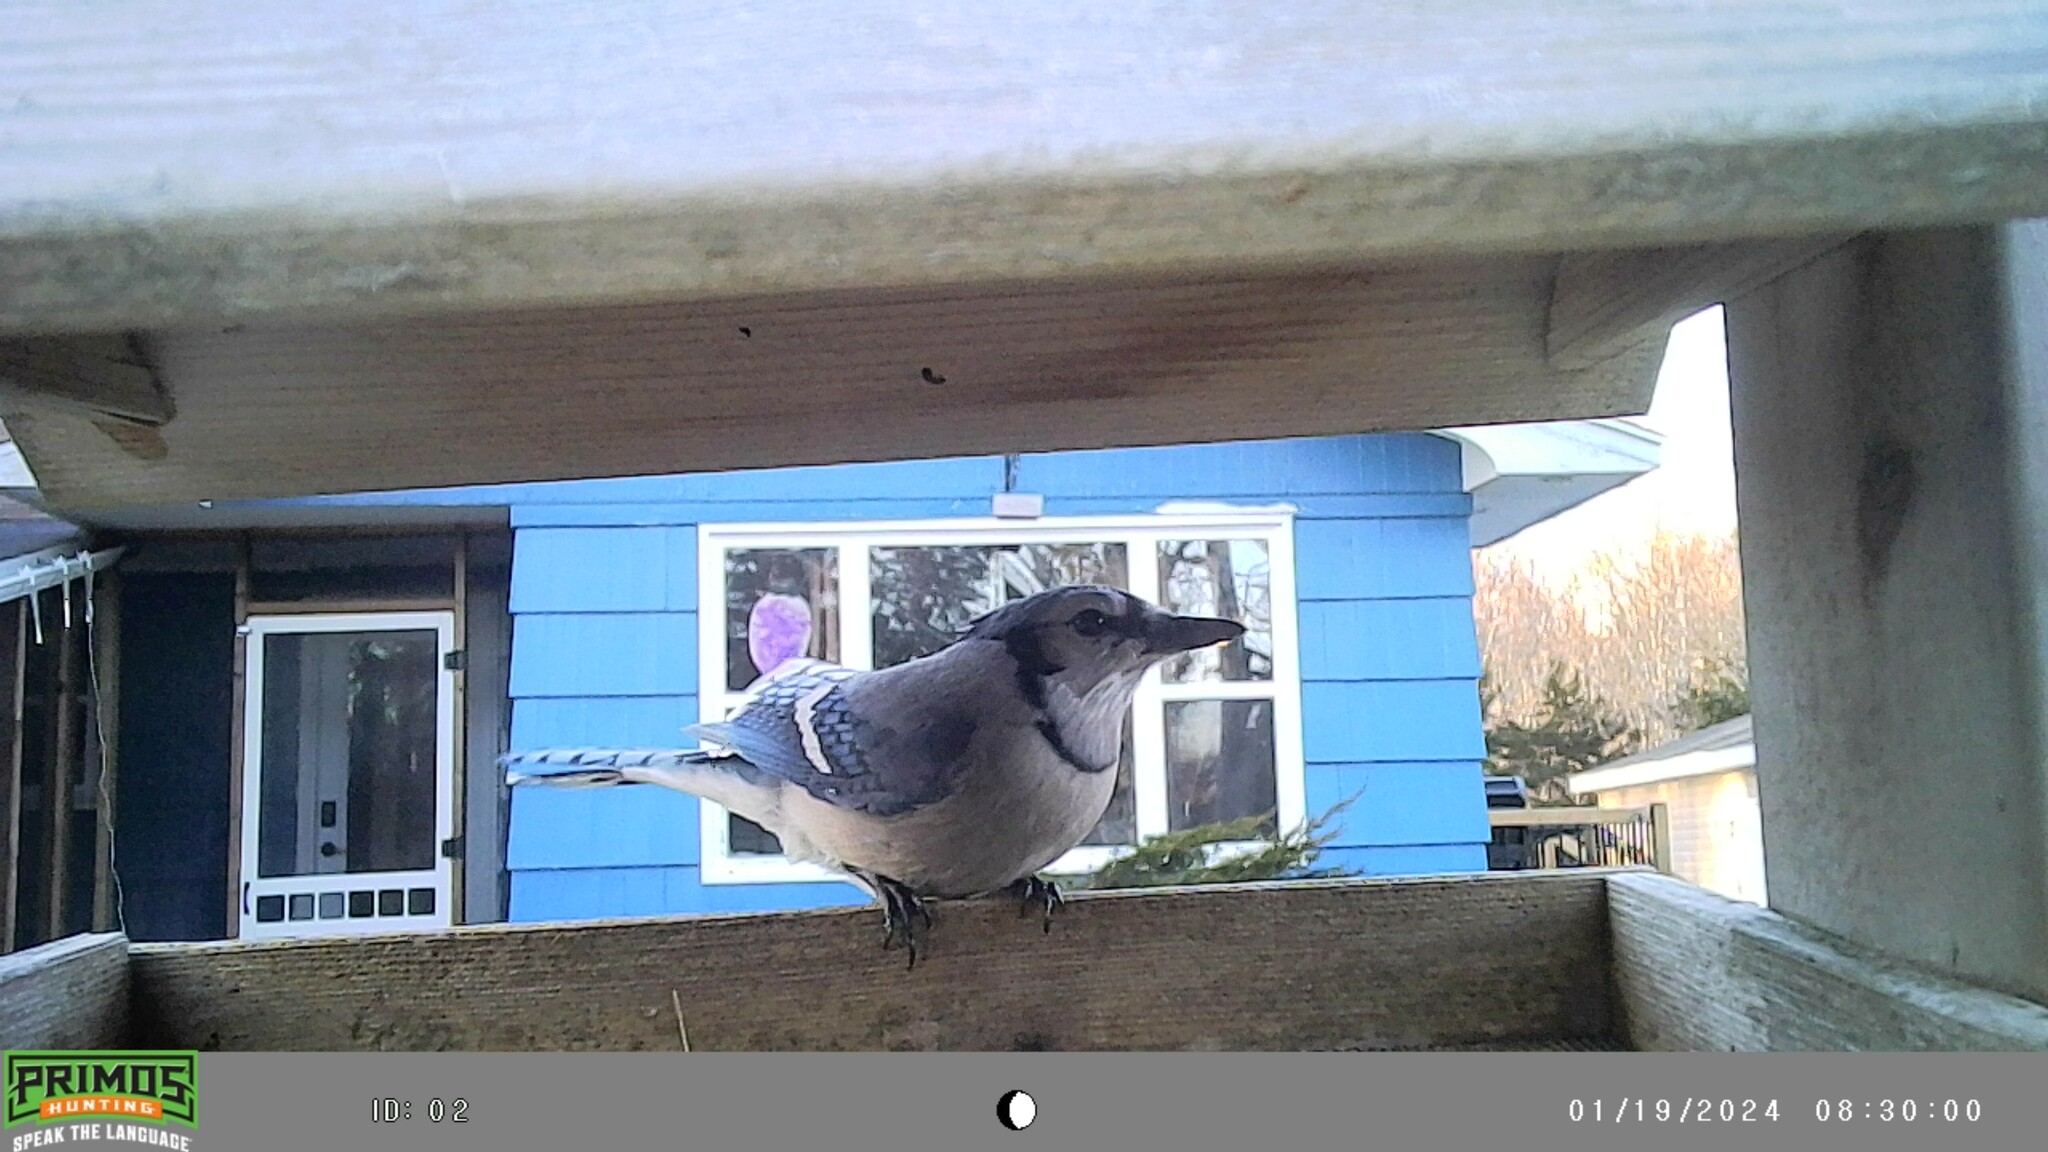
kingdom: Animalia
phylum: Chordata
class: Aves
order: Passeriformes
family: Corvidae
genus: Cyanocitta
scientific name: Cyanocitta cristata
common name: Blue jay
